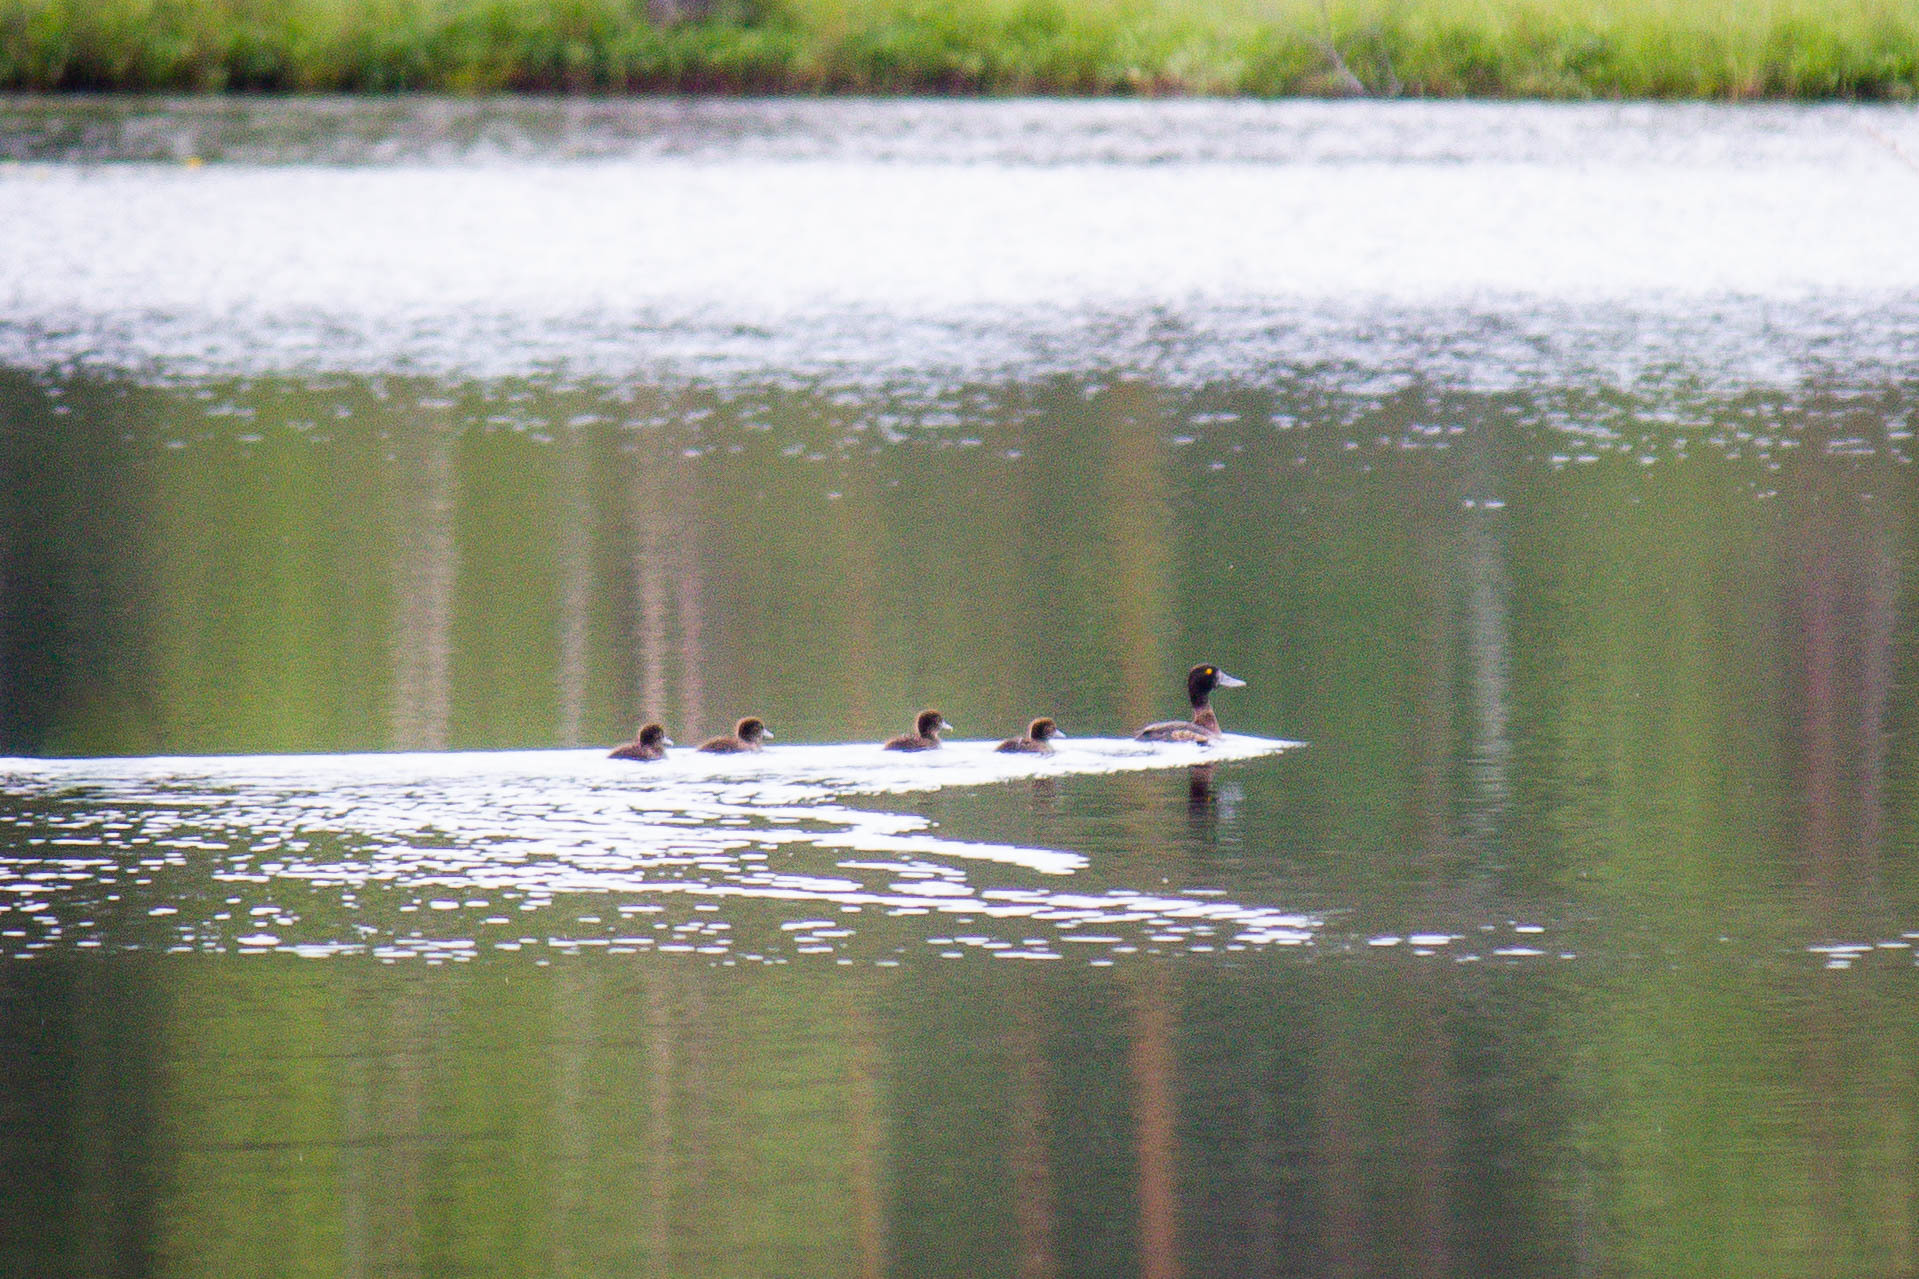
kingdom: Animalia
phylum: Chordata
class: Aves
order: Anseriformes
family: Anatidae
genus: Aythya
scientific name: Aythya fuligula
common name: Tufted duck
